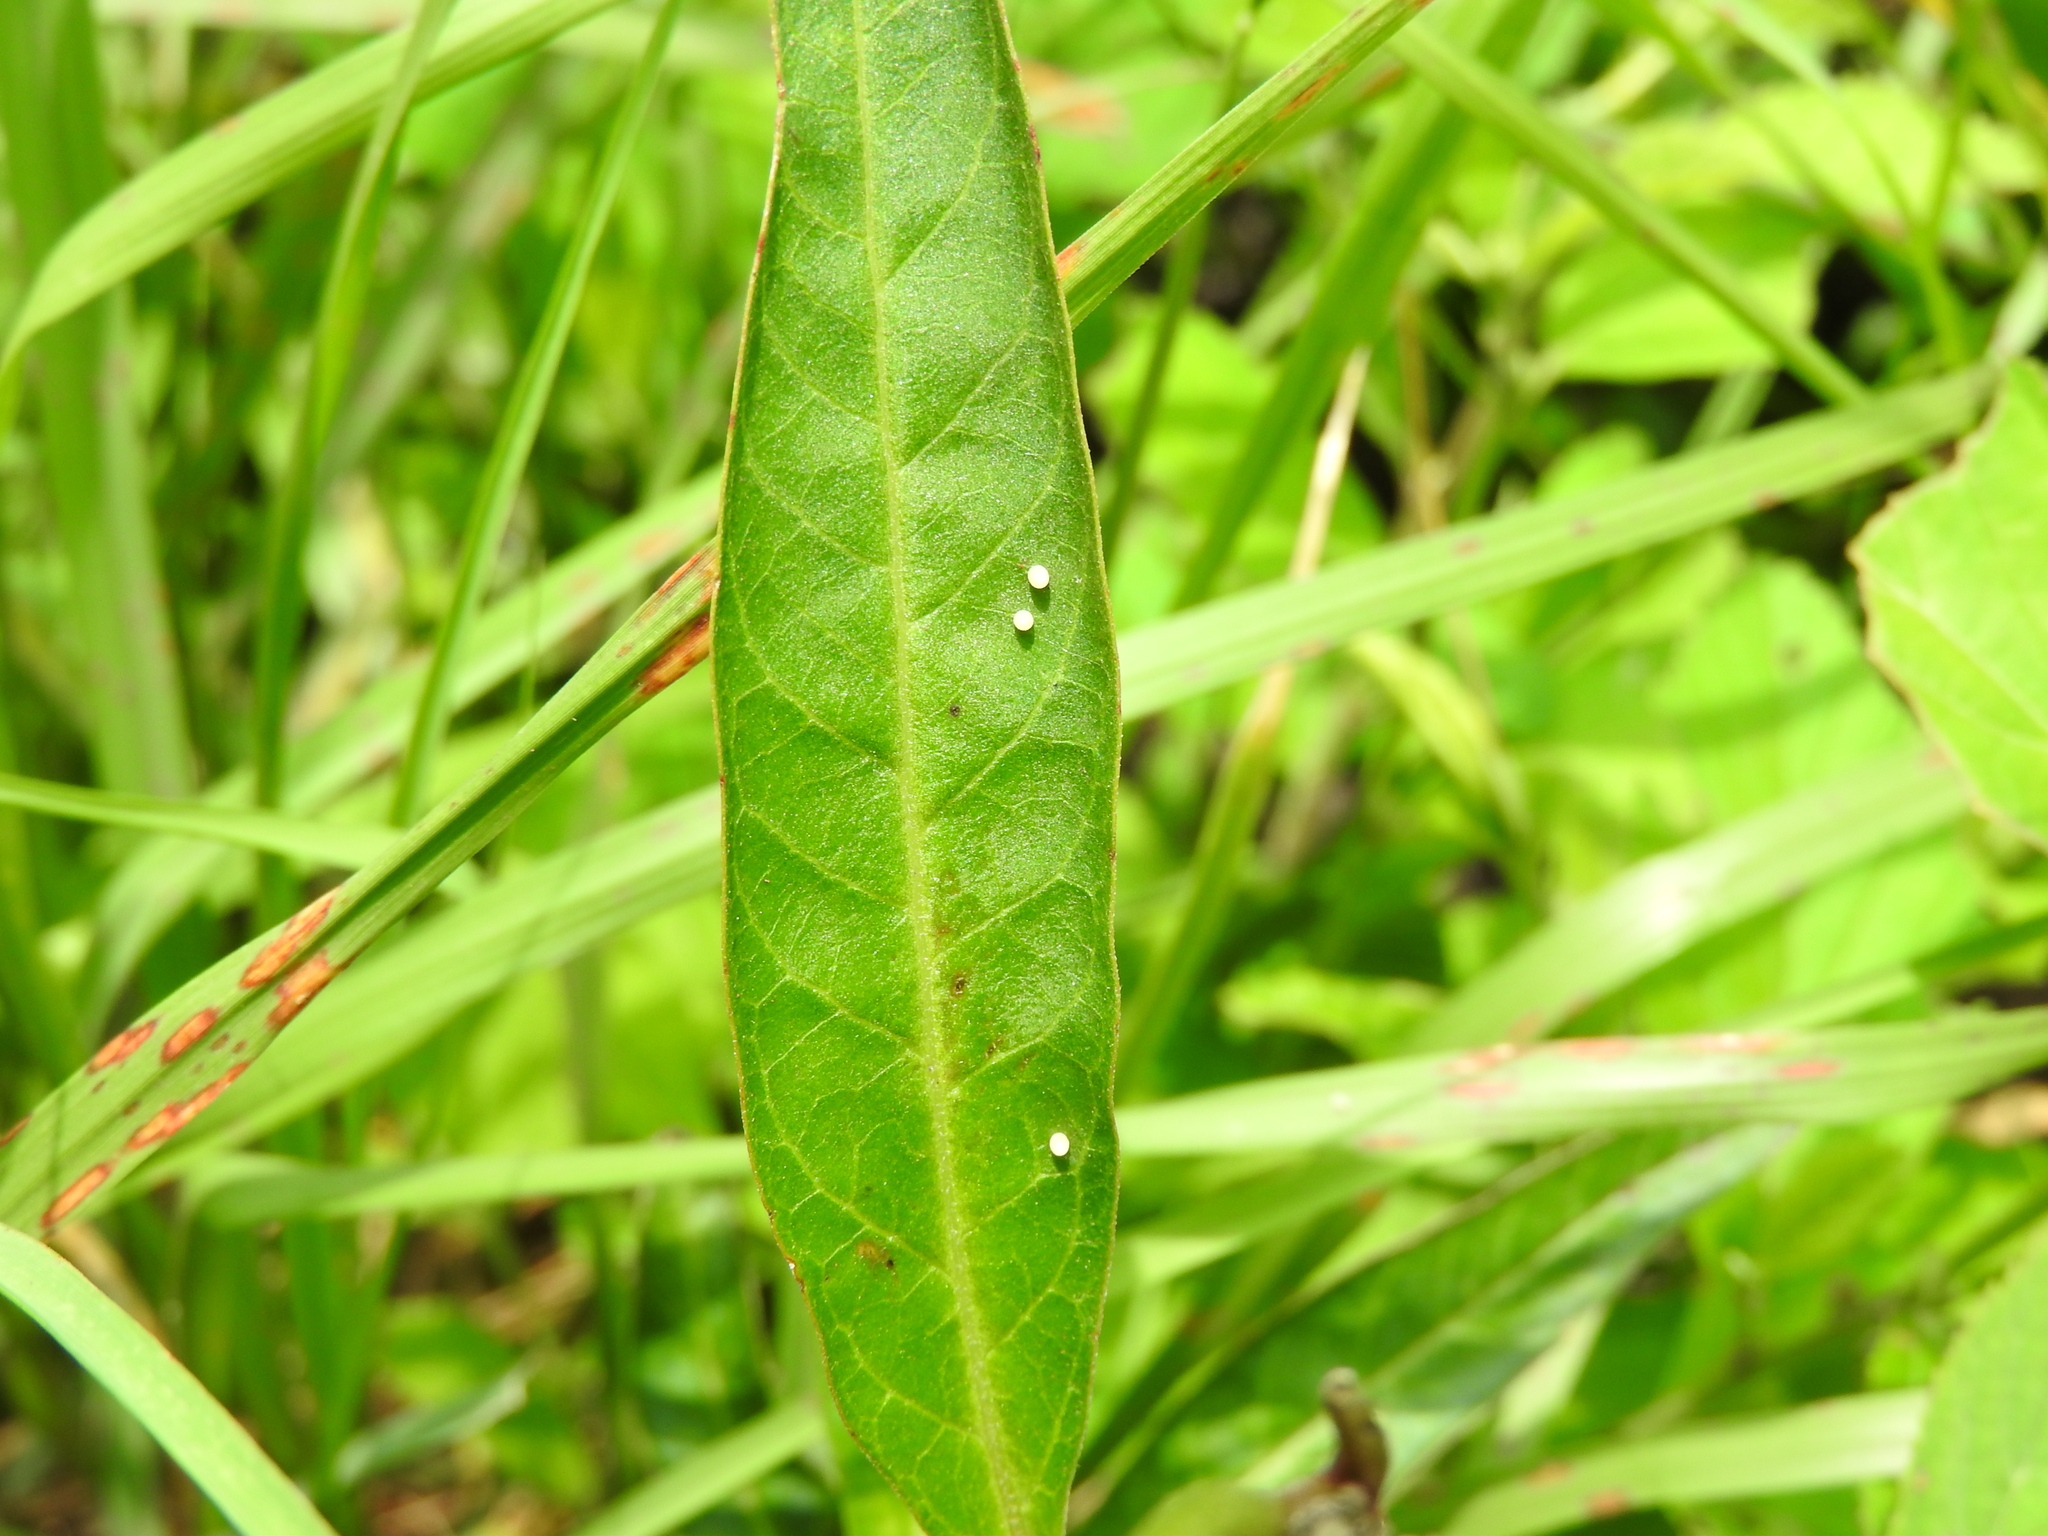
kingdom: Animalia
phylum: Arthropoda
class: Insecta
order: Lepidoptera
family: Nymphalidae
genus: Danaus
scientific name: Danaus plexippus
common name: Monarch
